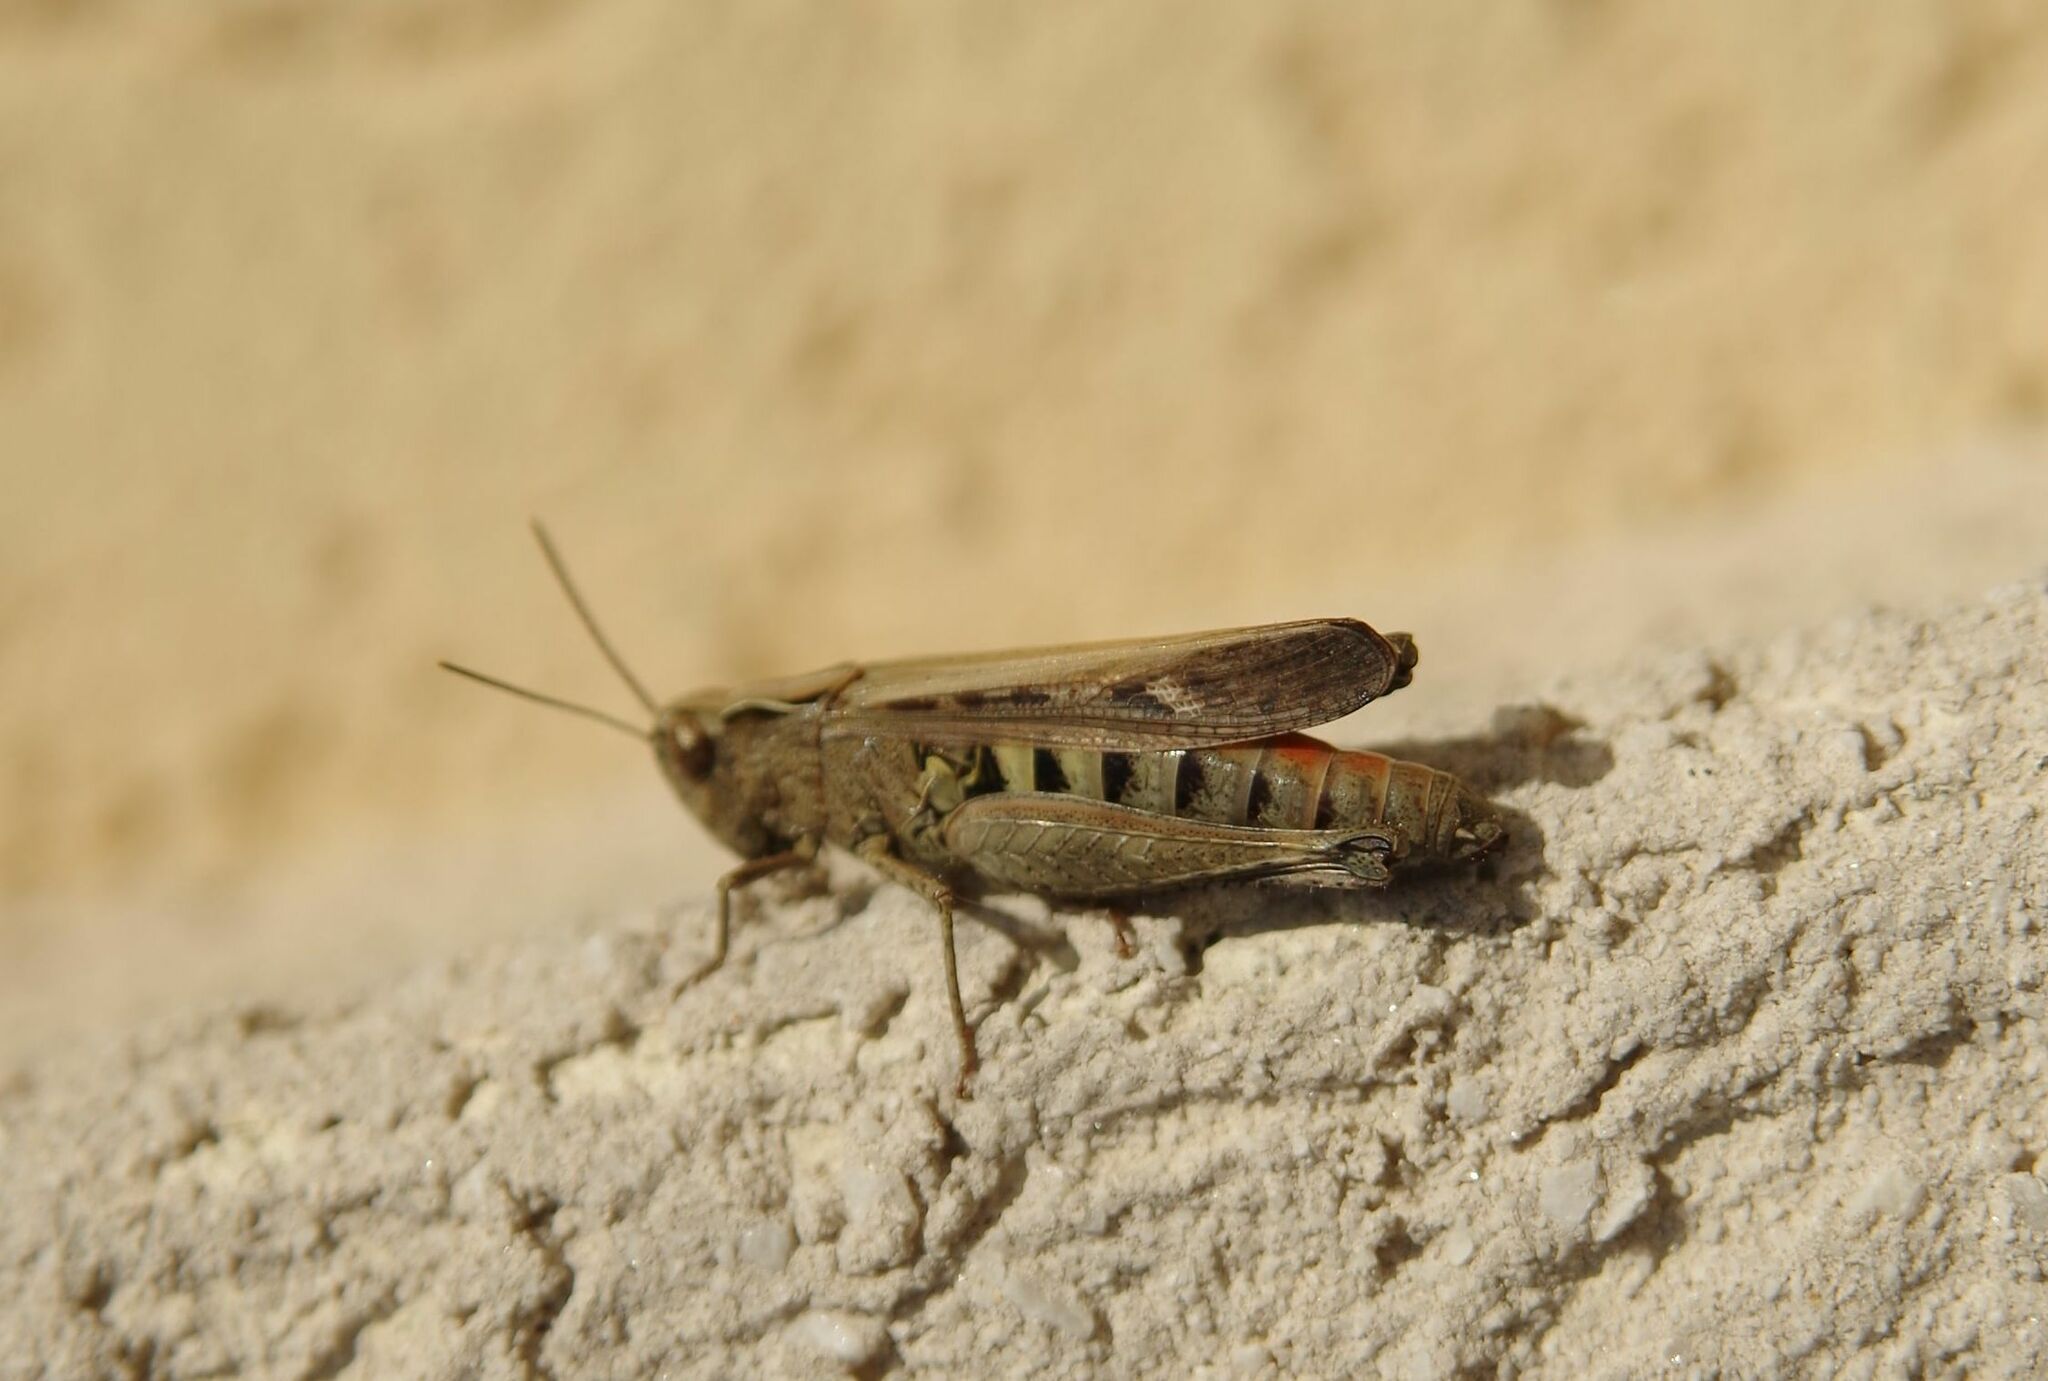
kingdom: Animalia
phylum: Arthropoda
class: Insecta
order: Orthoptera
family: Acrididae
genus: Omocestus
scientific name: Omocestus rufipes
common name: Woodland grasshopper
